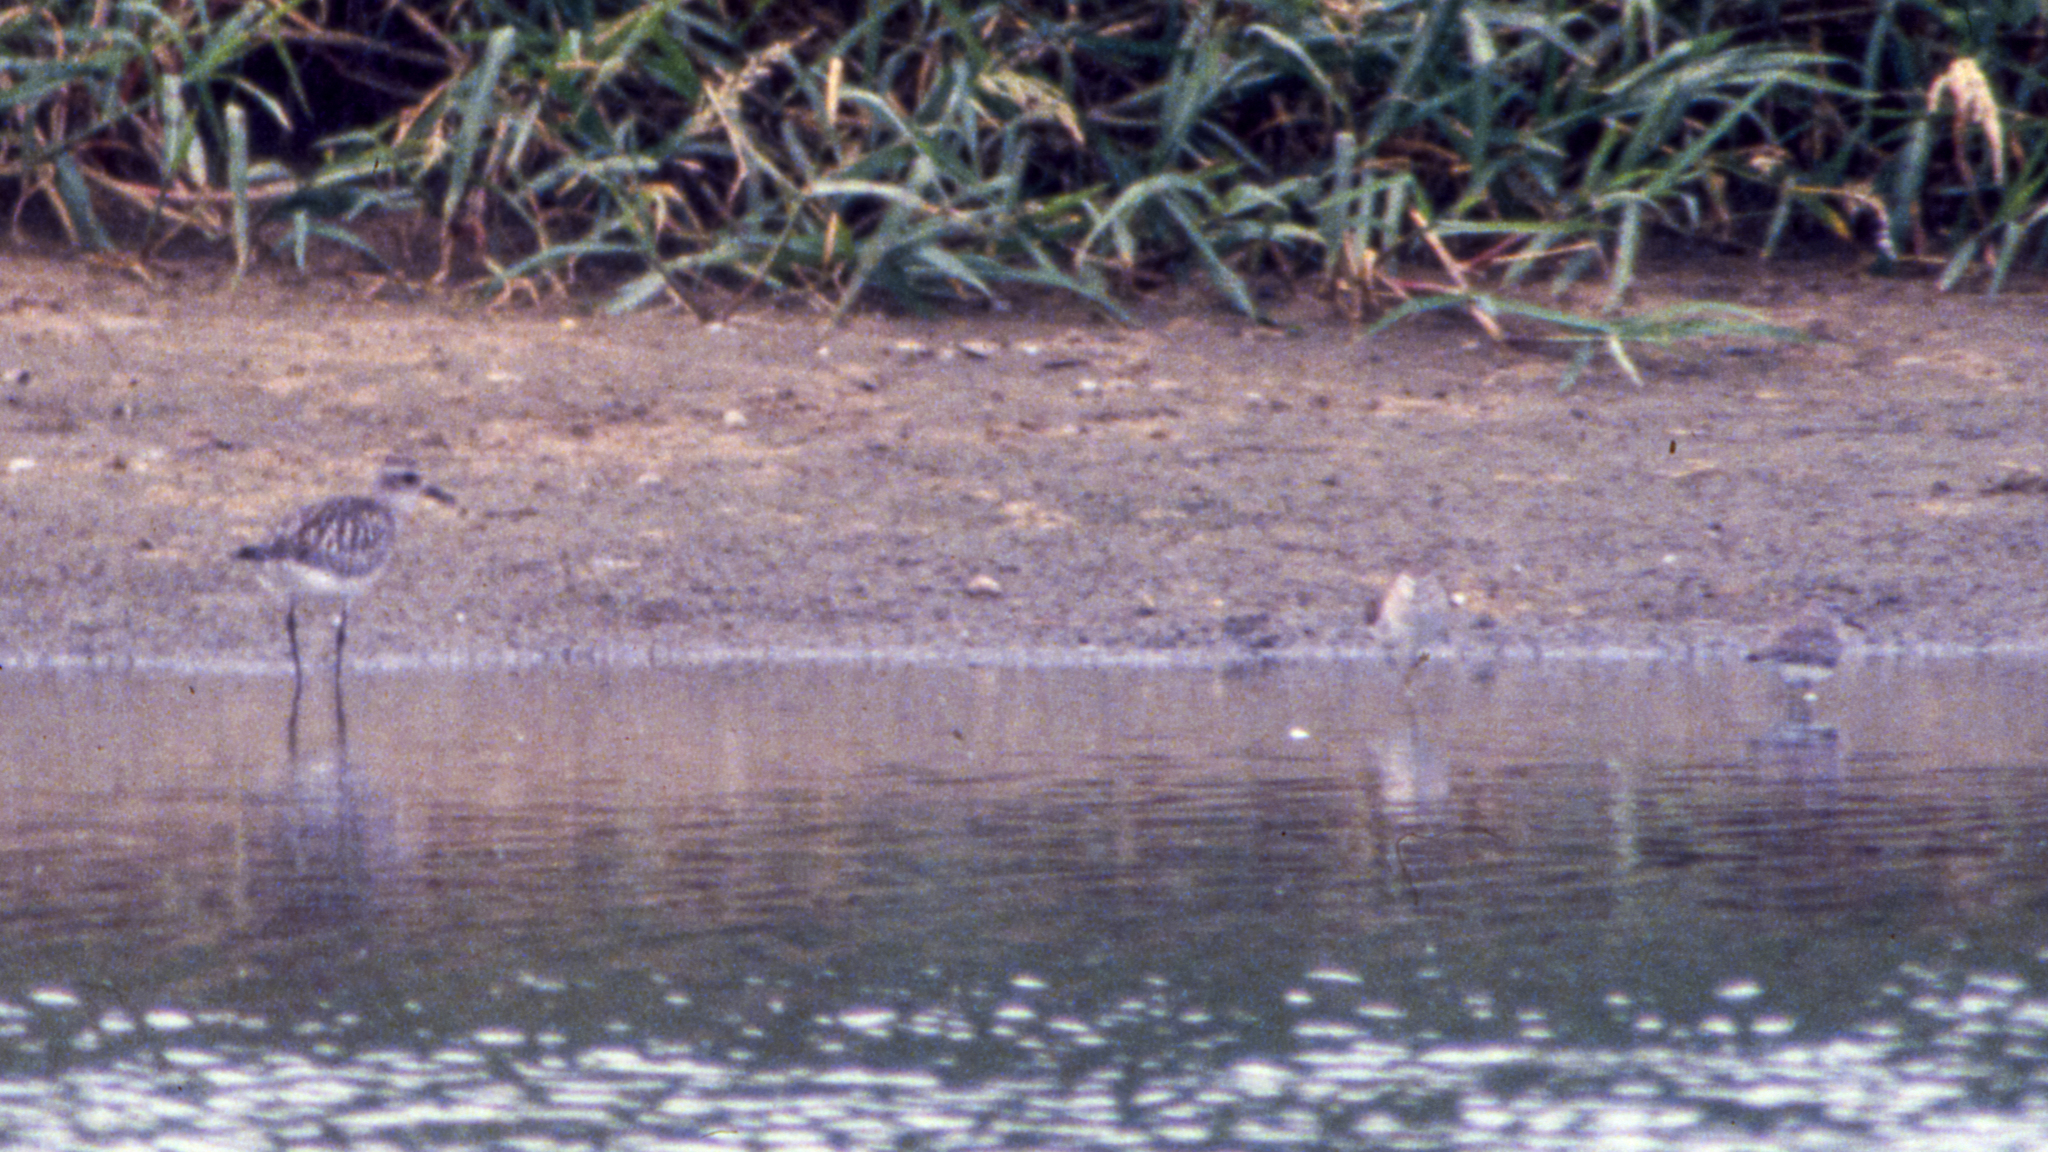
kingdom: Animalia
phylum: Chordata
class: Aves
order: Charadriiformes
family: Charadriidae
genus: Pluvialis
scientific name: Pluvialis squatarola
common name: Grey plover
